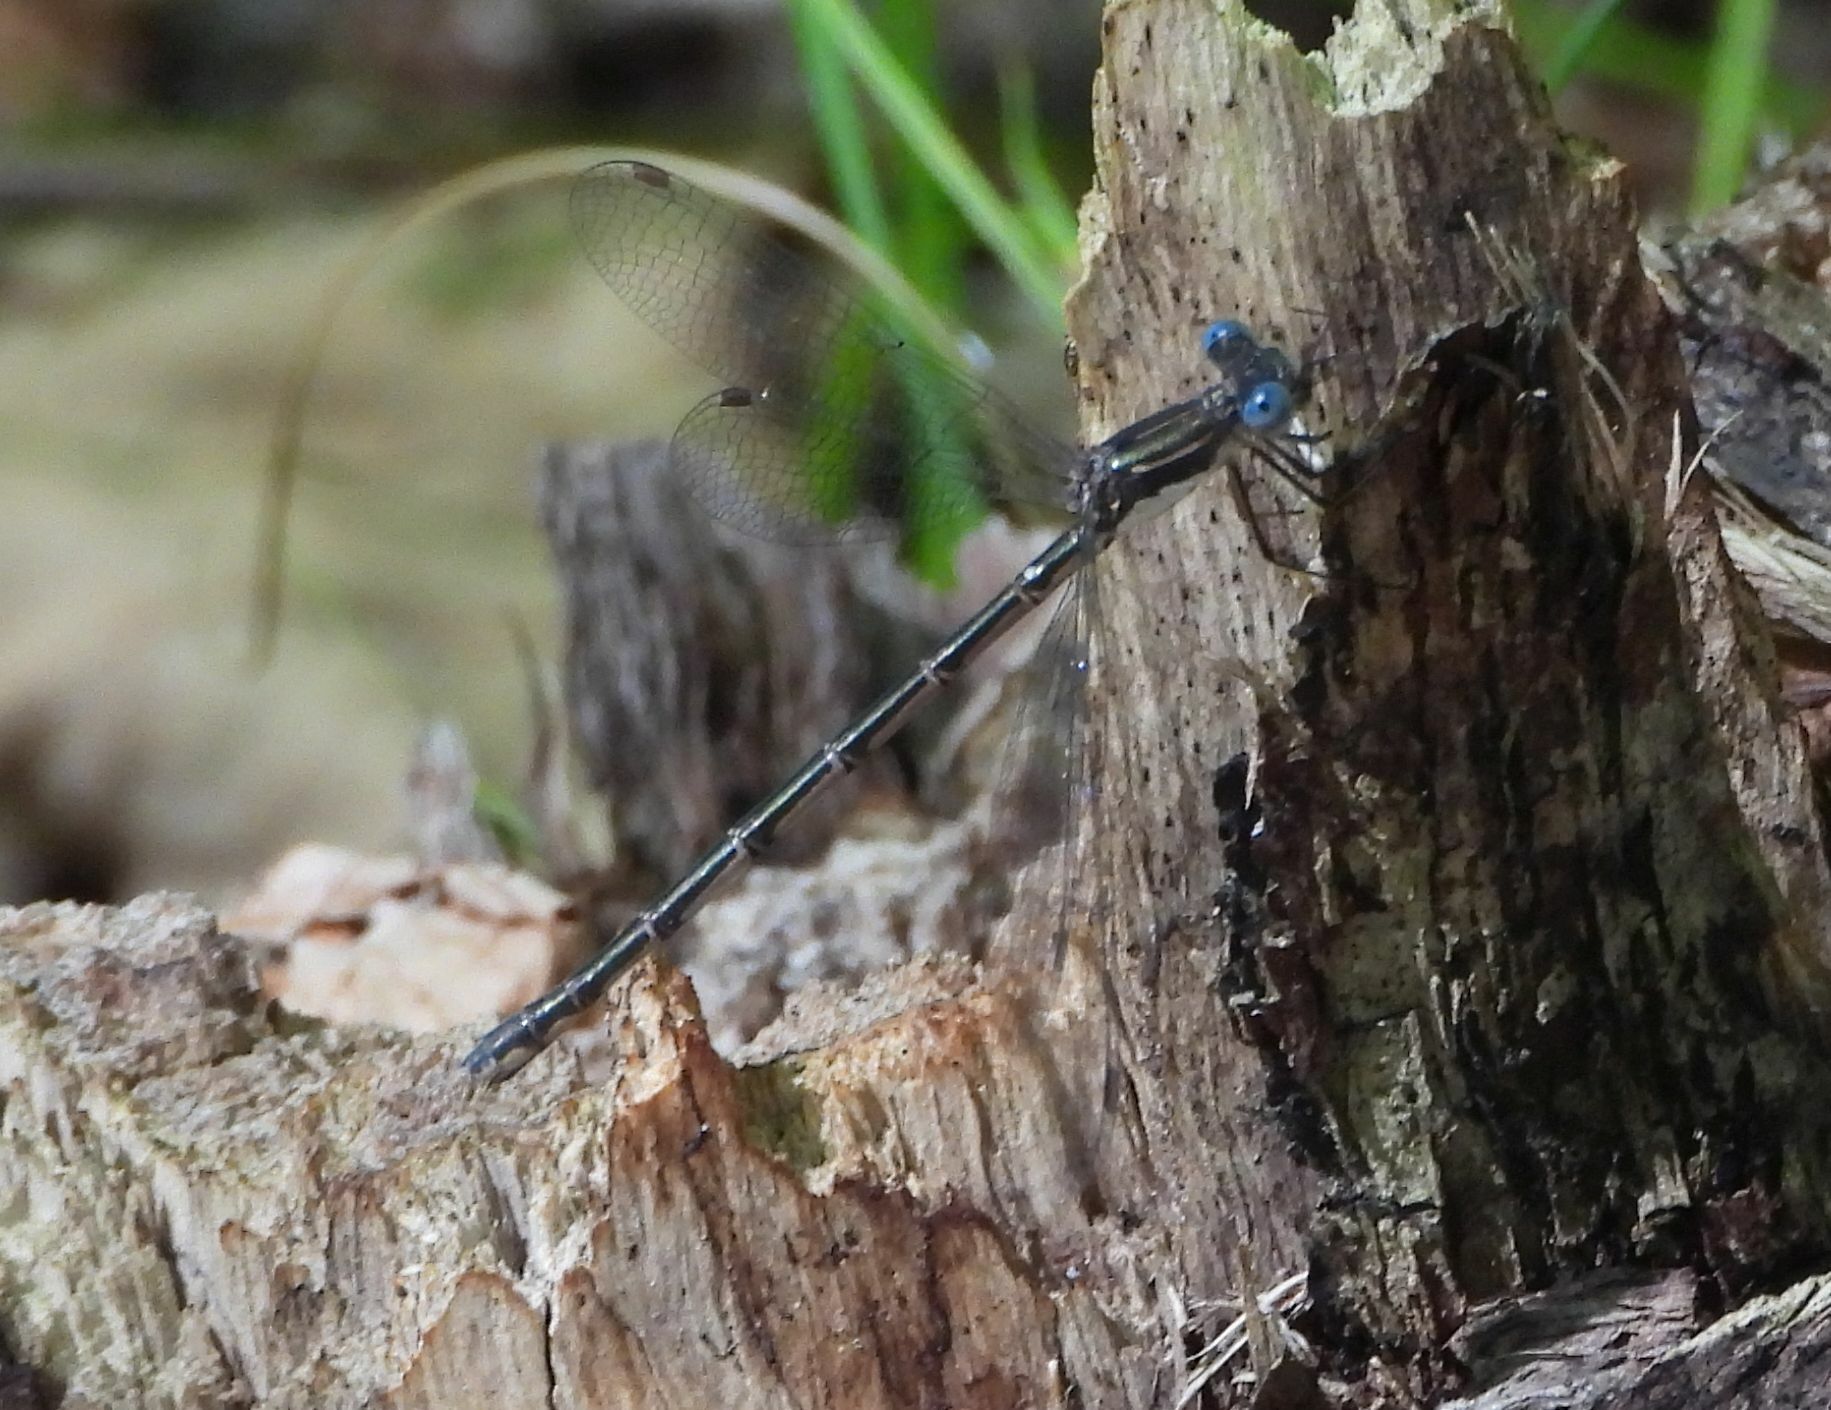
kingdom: Animalia
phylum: Arthropoda
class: Insecta
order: Odonata
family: Lestidae
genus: Lestes
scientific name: Lestes congener
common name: Spotted spreadwing
